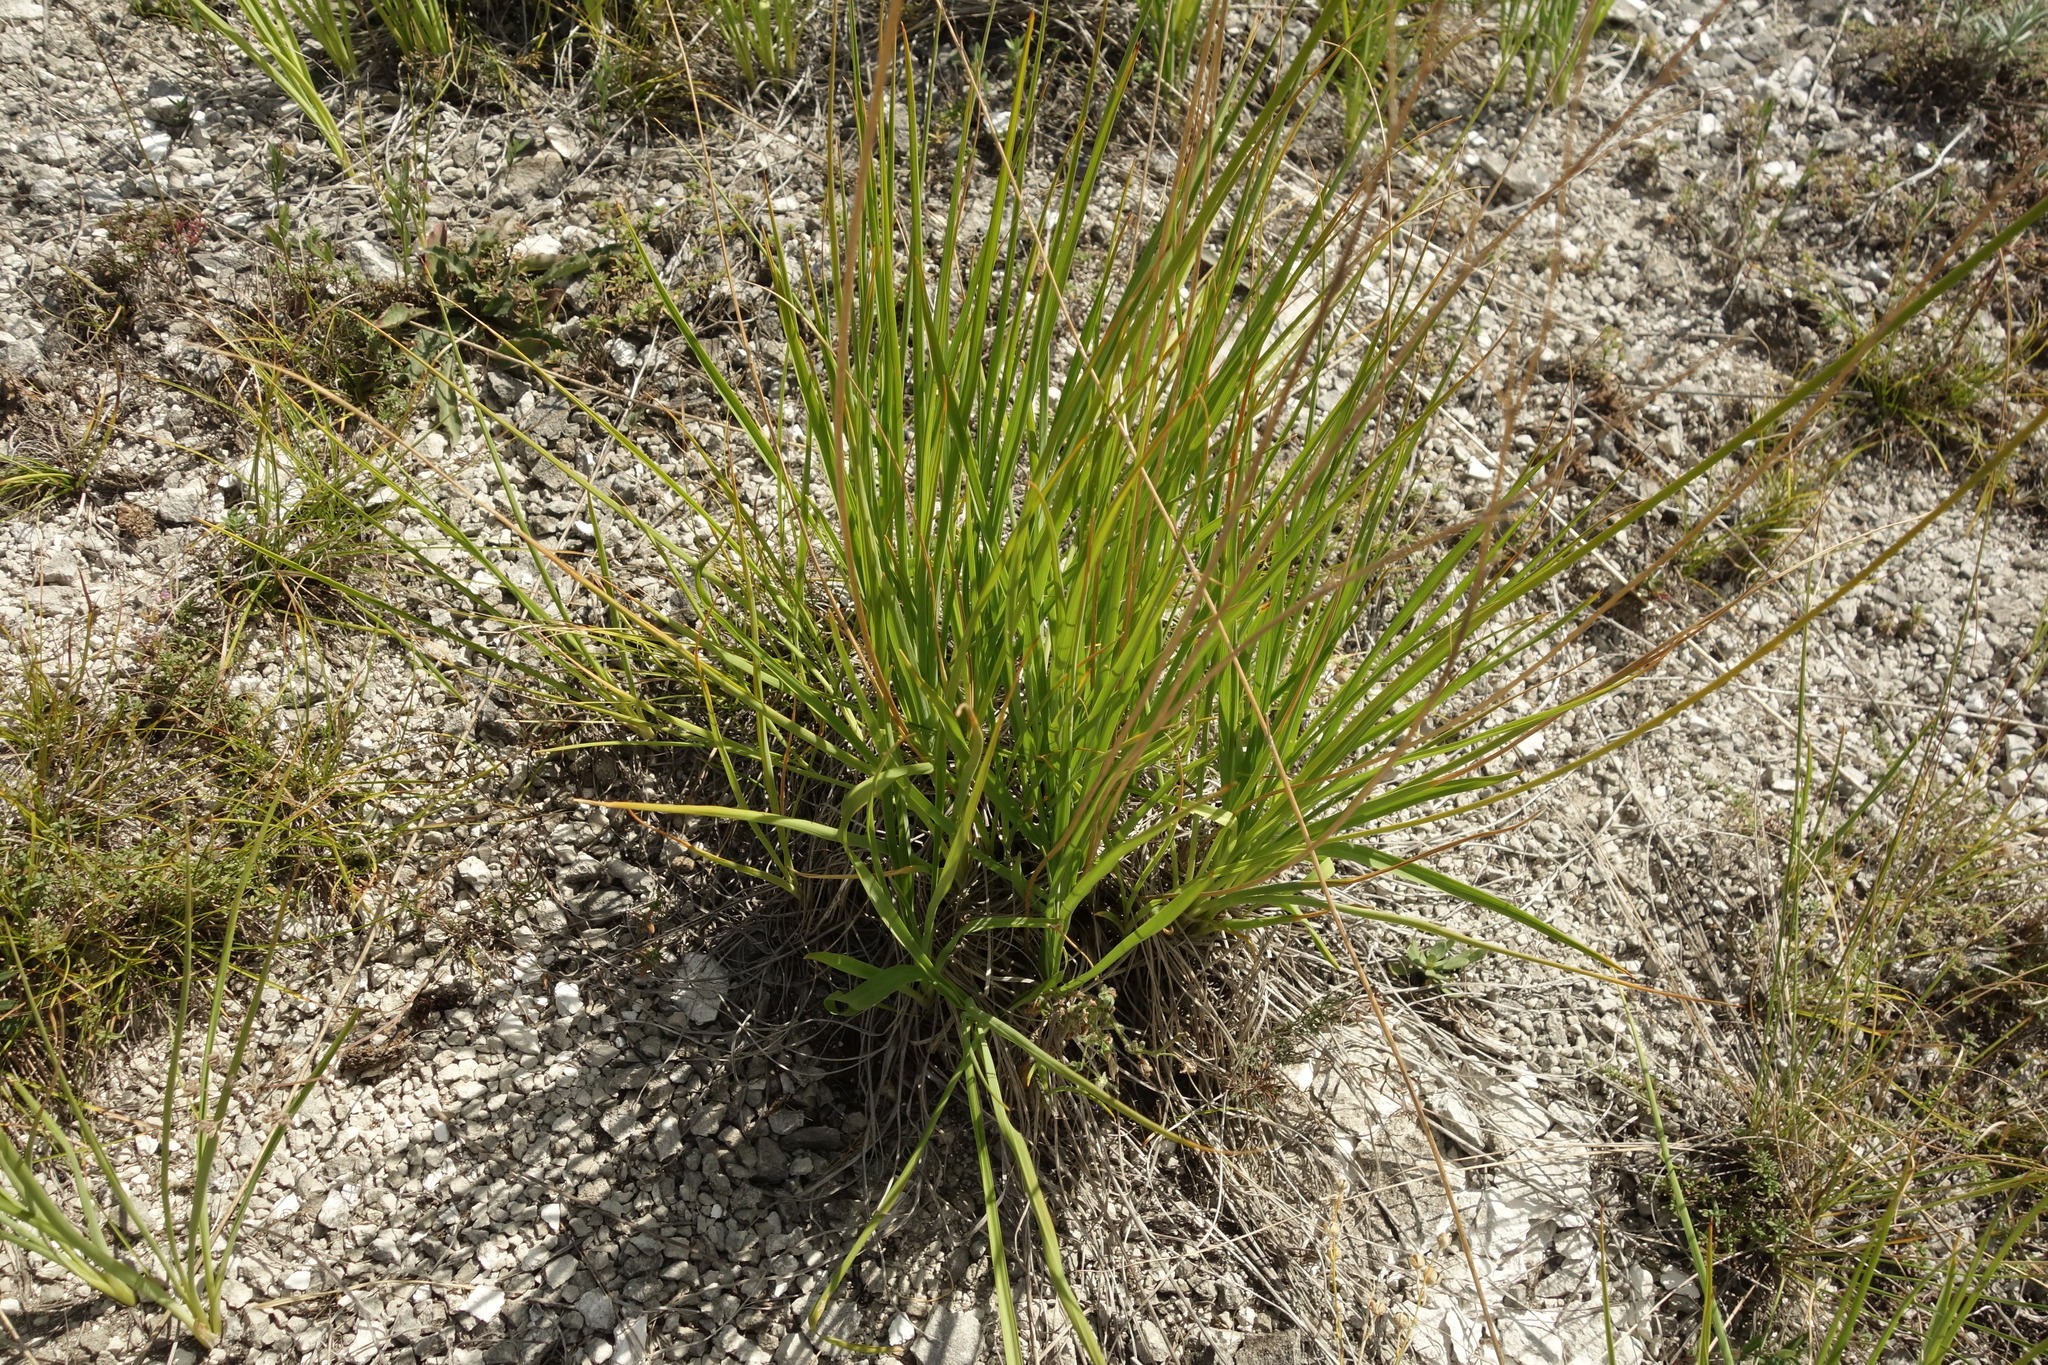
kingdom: Plantae
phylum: Tracheophyta
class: Liliopsida
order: Asparagales
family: Asparagaceae
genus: Anthericum
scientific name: Anthericum ramosum
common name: Branched st. bernard's-lily
